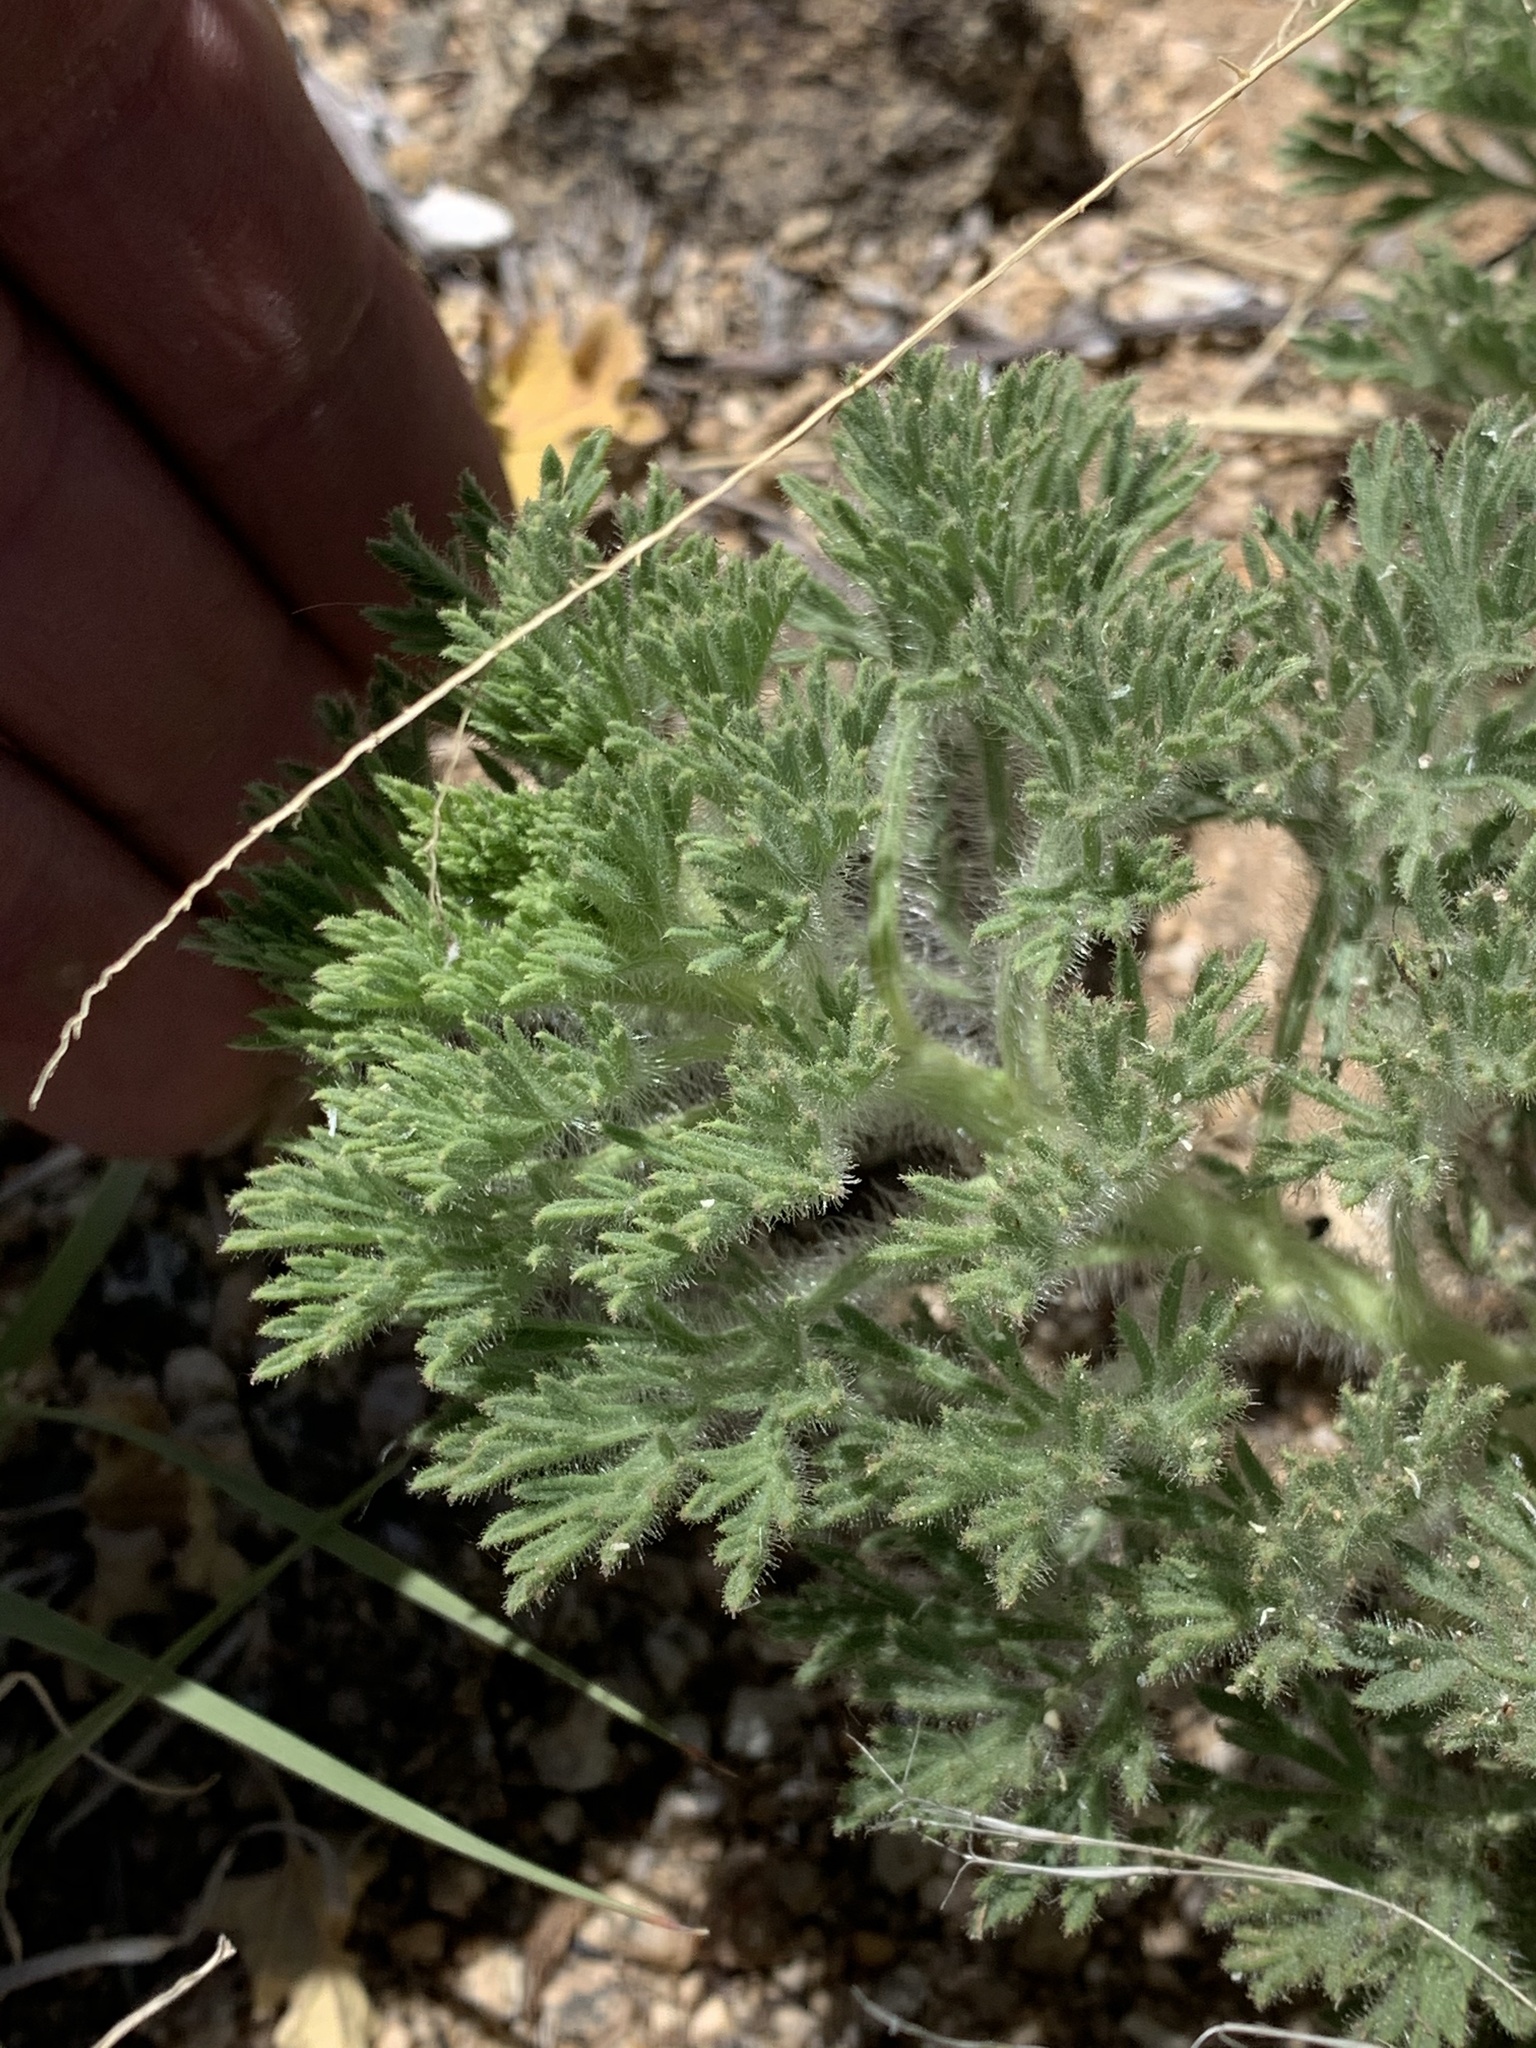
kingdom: Plantae
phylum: Tracheophyta
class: Magnoliopsida
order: Asterales
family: Asteraceae
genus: Laennecia
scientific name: Laennecia coulteri
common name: Coulter's woolwort
